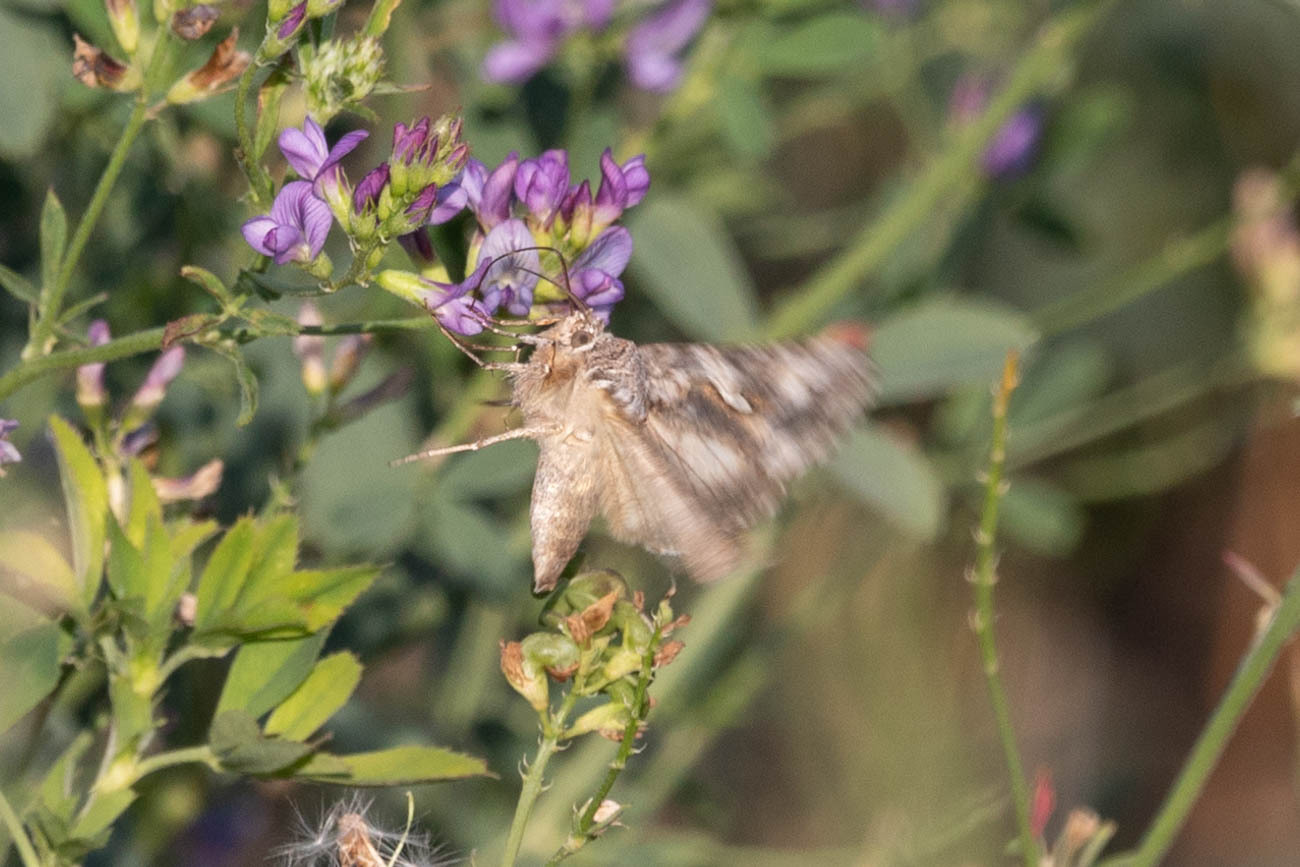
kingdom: Animalia
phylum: Arthropoda
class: Insecta
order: Lepidoptera
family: Noctuidae
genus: Autographa
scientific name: Autographa californica
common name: Alfalfa looper
